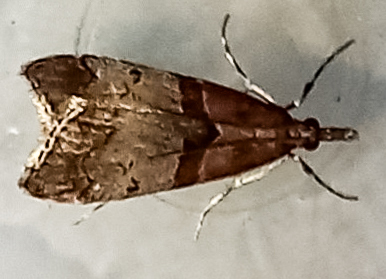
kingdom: Animalia
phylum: Arthropoda
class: Insecta
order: Lepidoptera
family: Crambidae
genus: Antiscopa
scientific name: Antiscopa acompa
